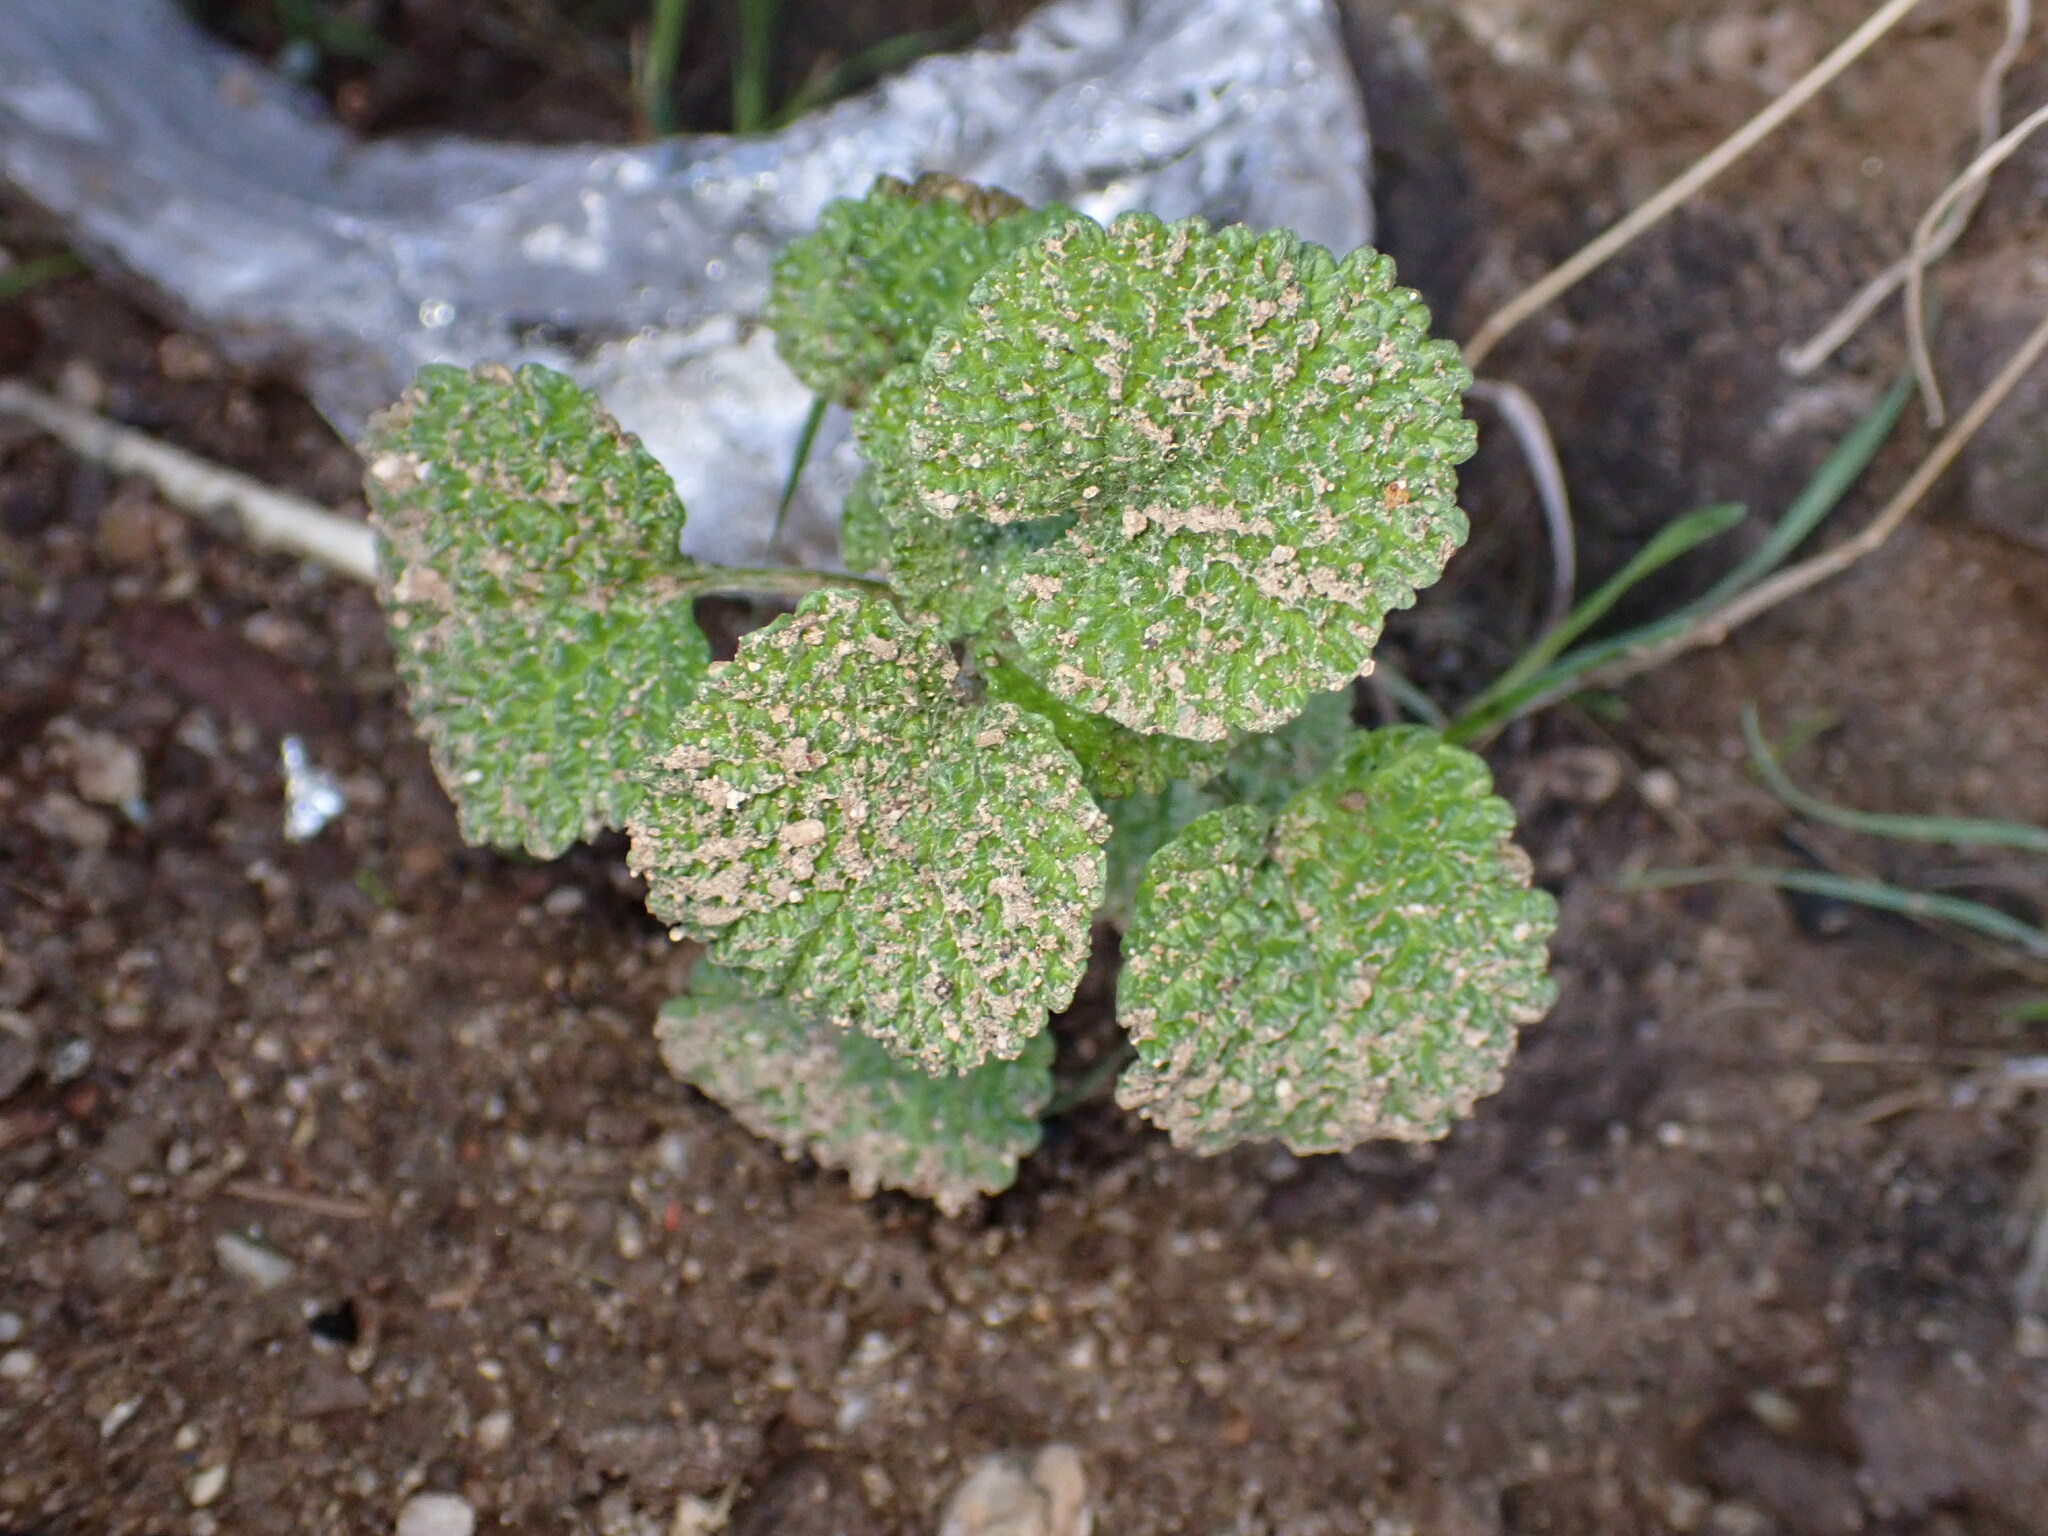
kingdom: Plantae
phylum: Tracheophyta
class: Magnoliopsida
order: Lamiales
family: Lamiaceae
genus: Marrubium
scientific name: Marrubium vulgare
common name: Horehound
